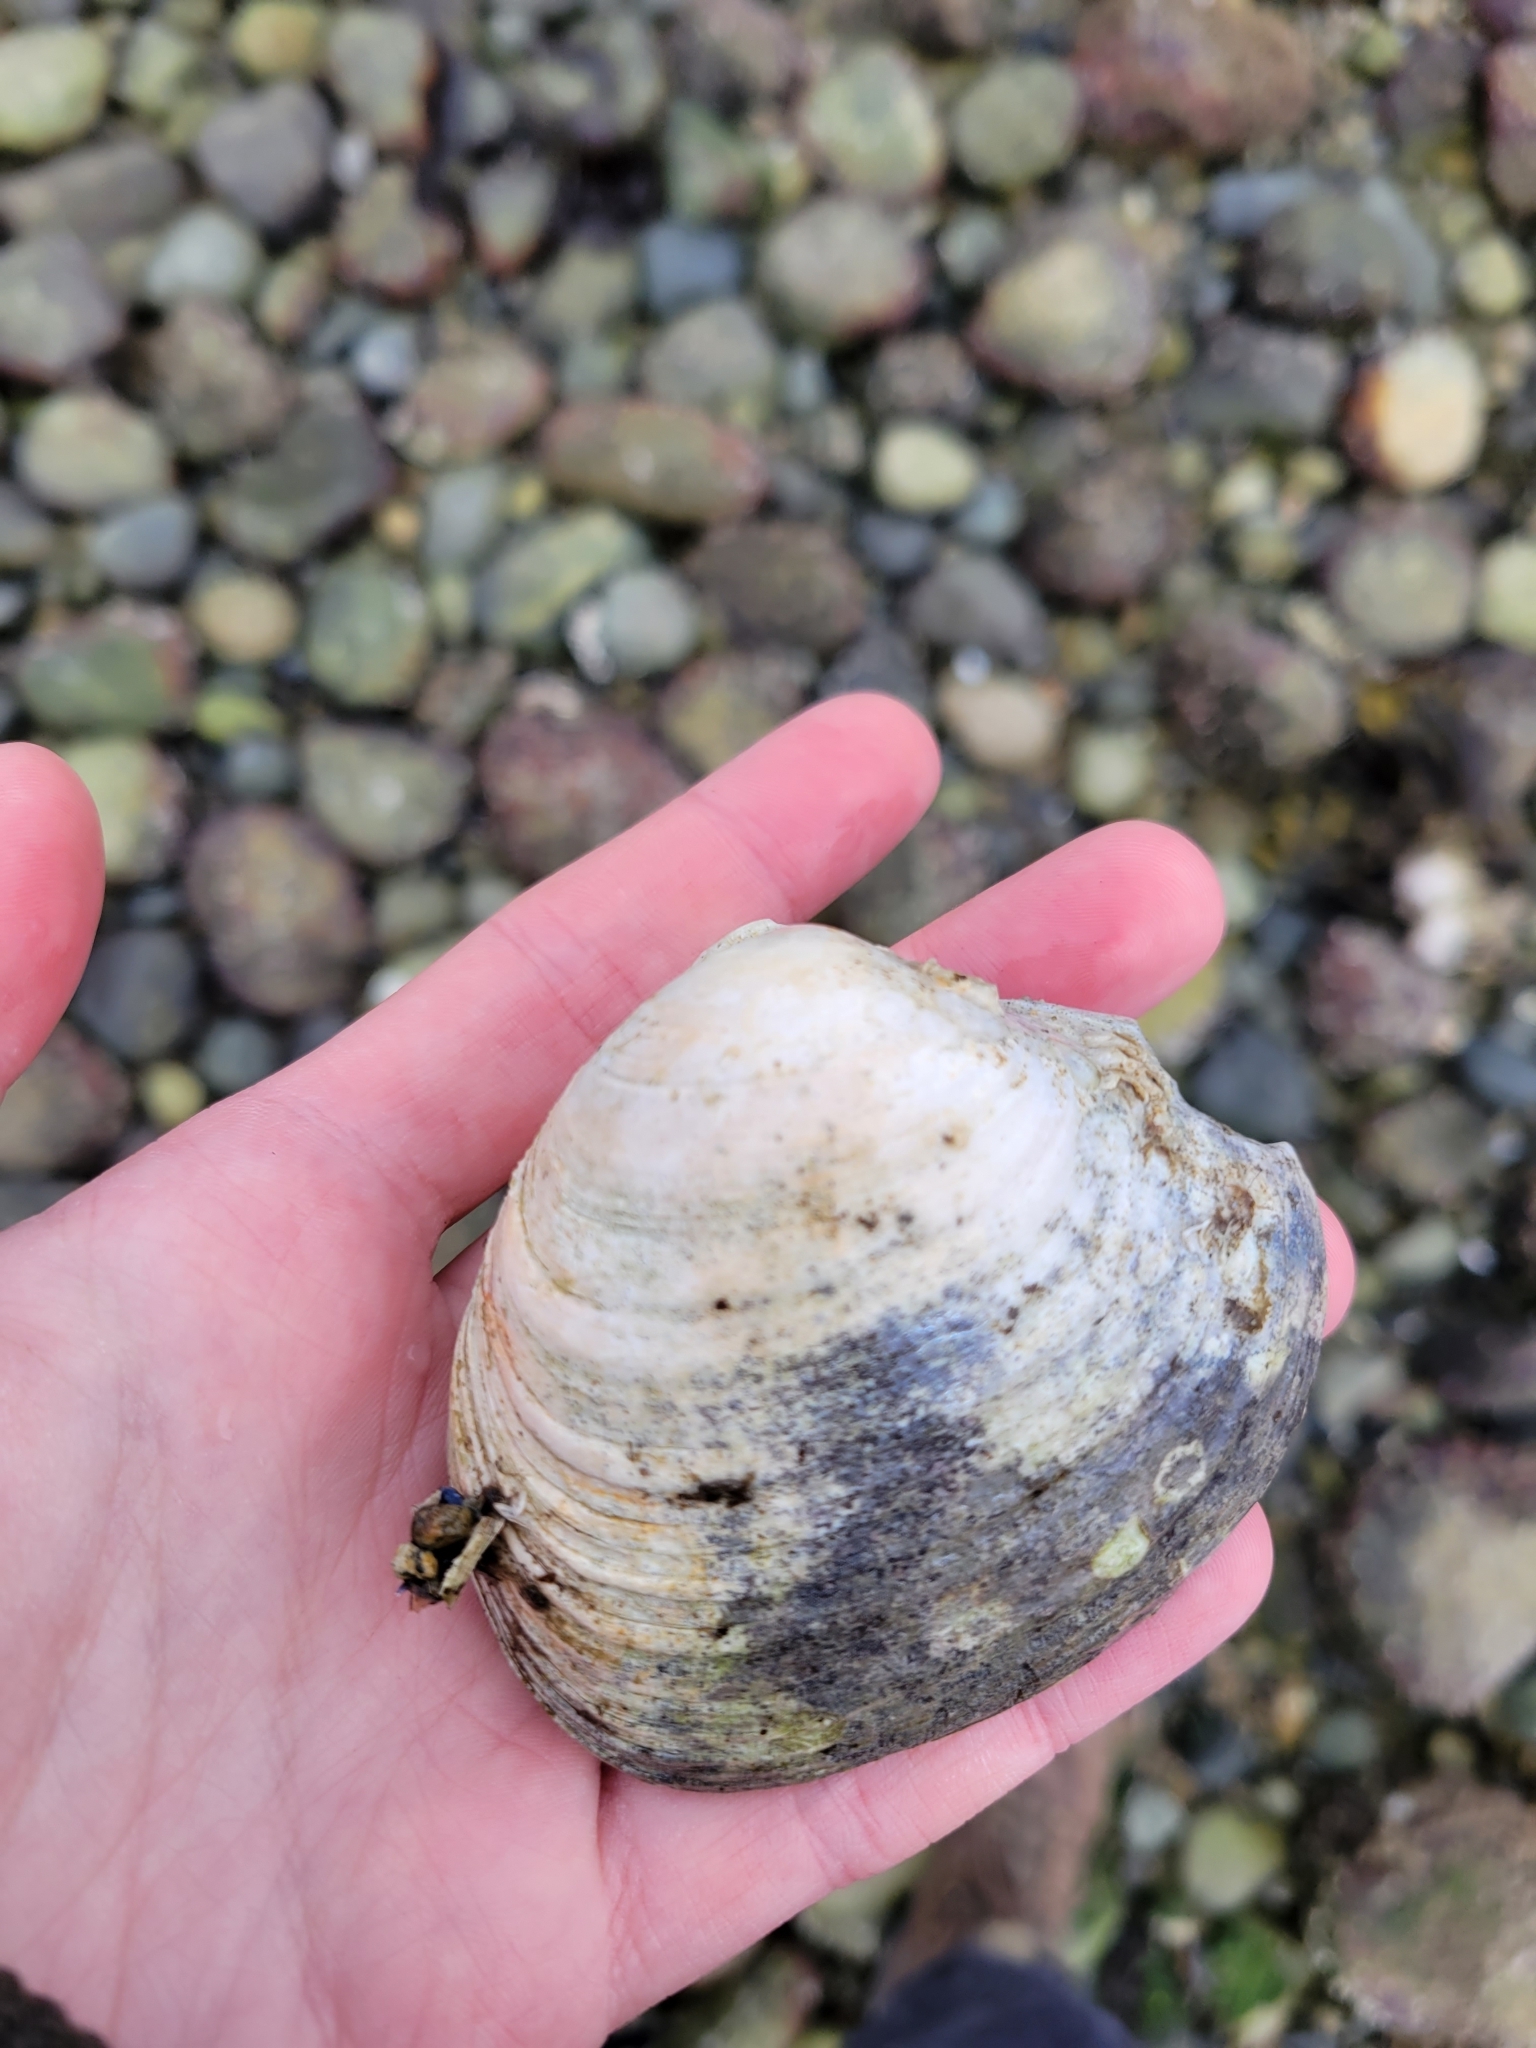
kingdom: Animalia
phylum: Mollusca
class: Bivalvia
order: Venerida
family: Veneridae
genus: Saxidomus
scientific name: Saxidomus gigantea
